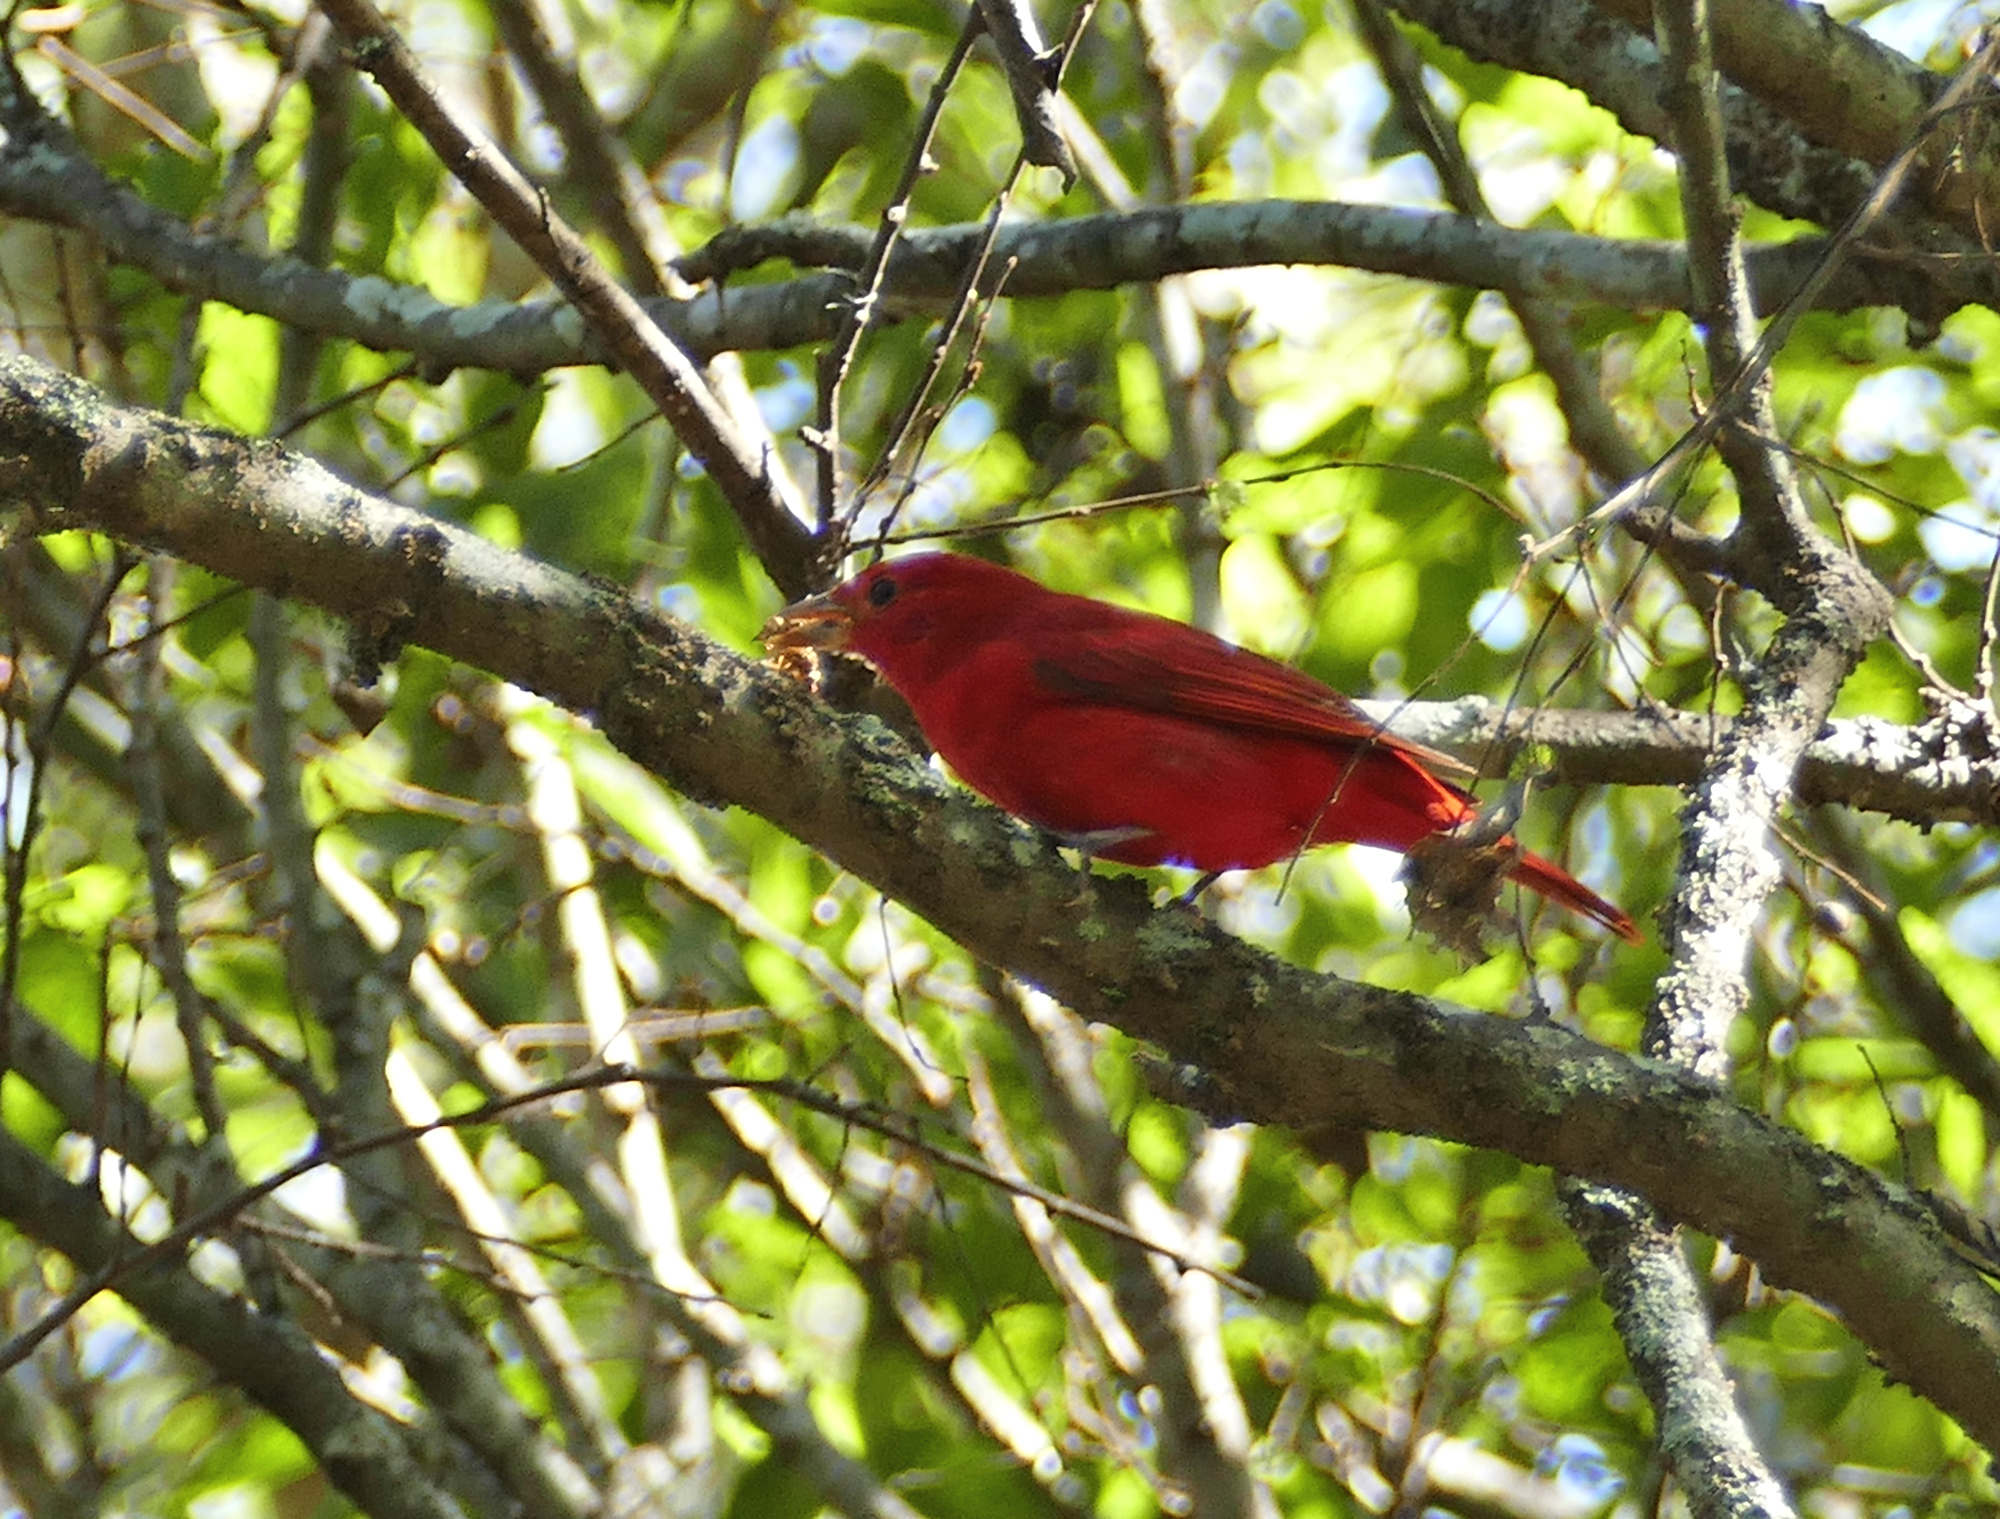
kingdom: Animalia
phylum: Chordata
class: Aves
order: Passeriformes
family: Cardinalidae
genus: Piranga
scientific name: Piranga rubra
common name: Summer tanager
